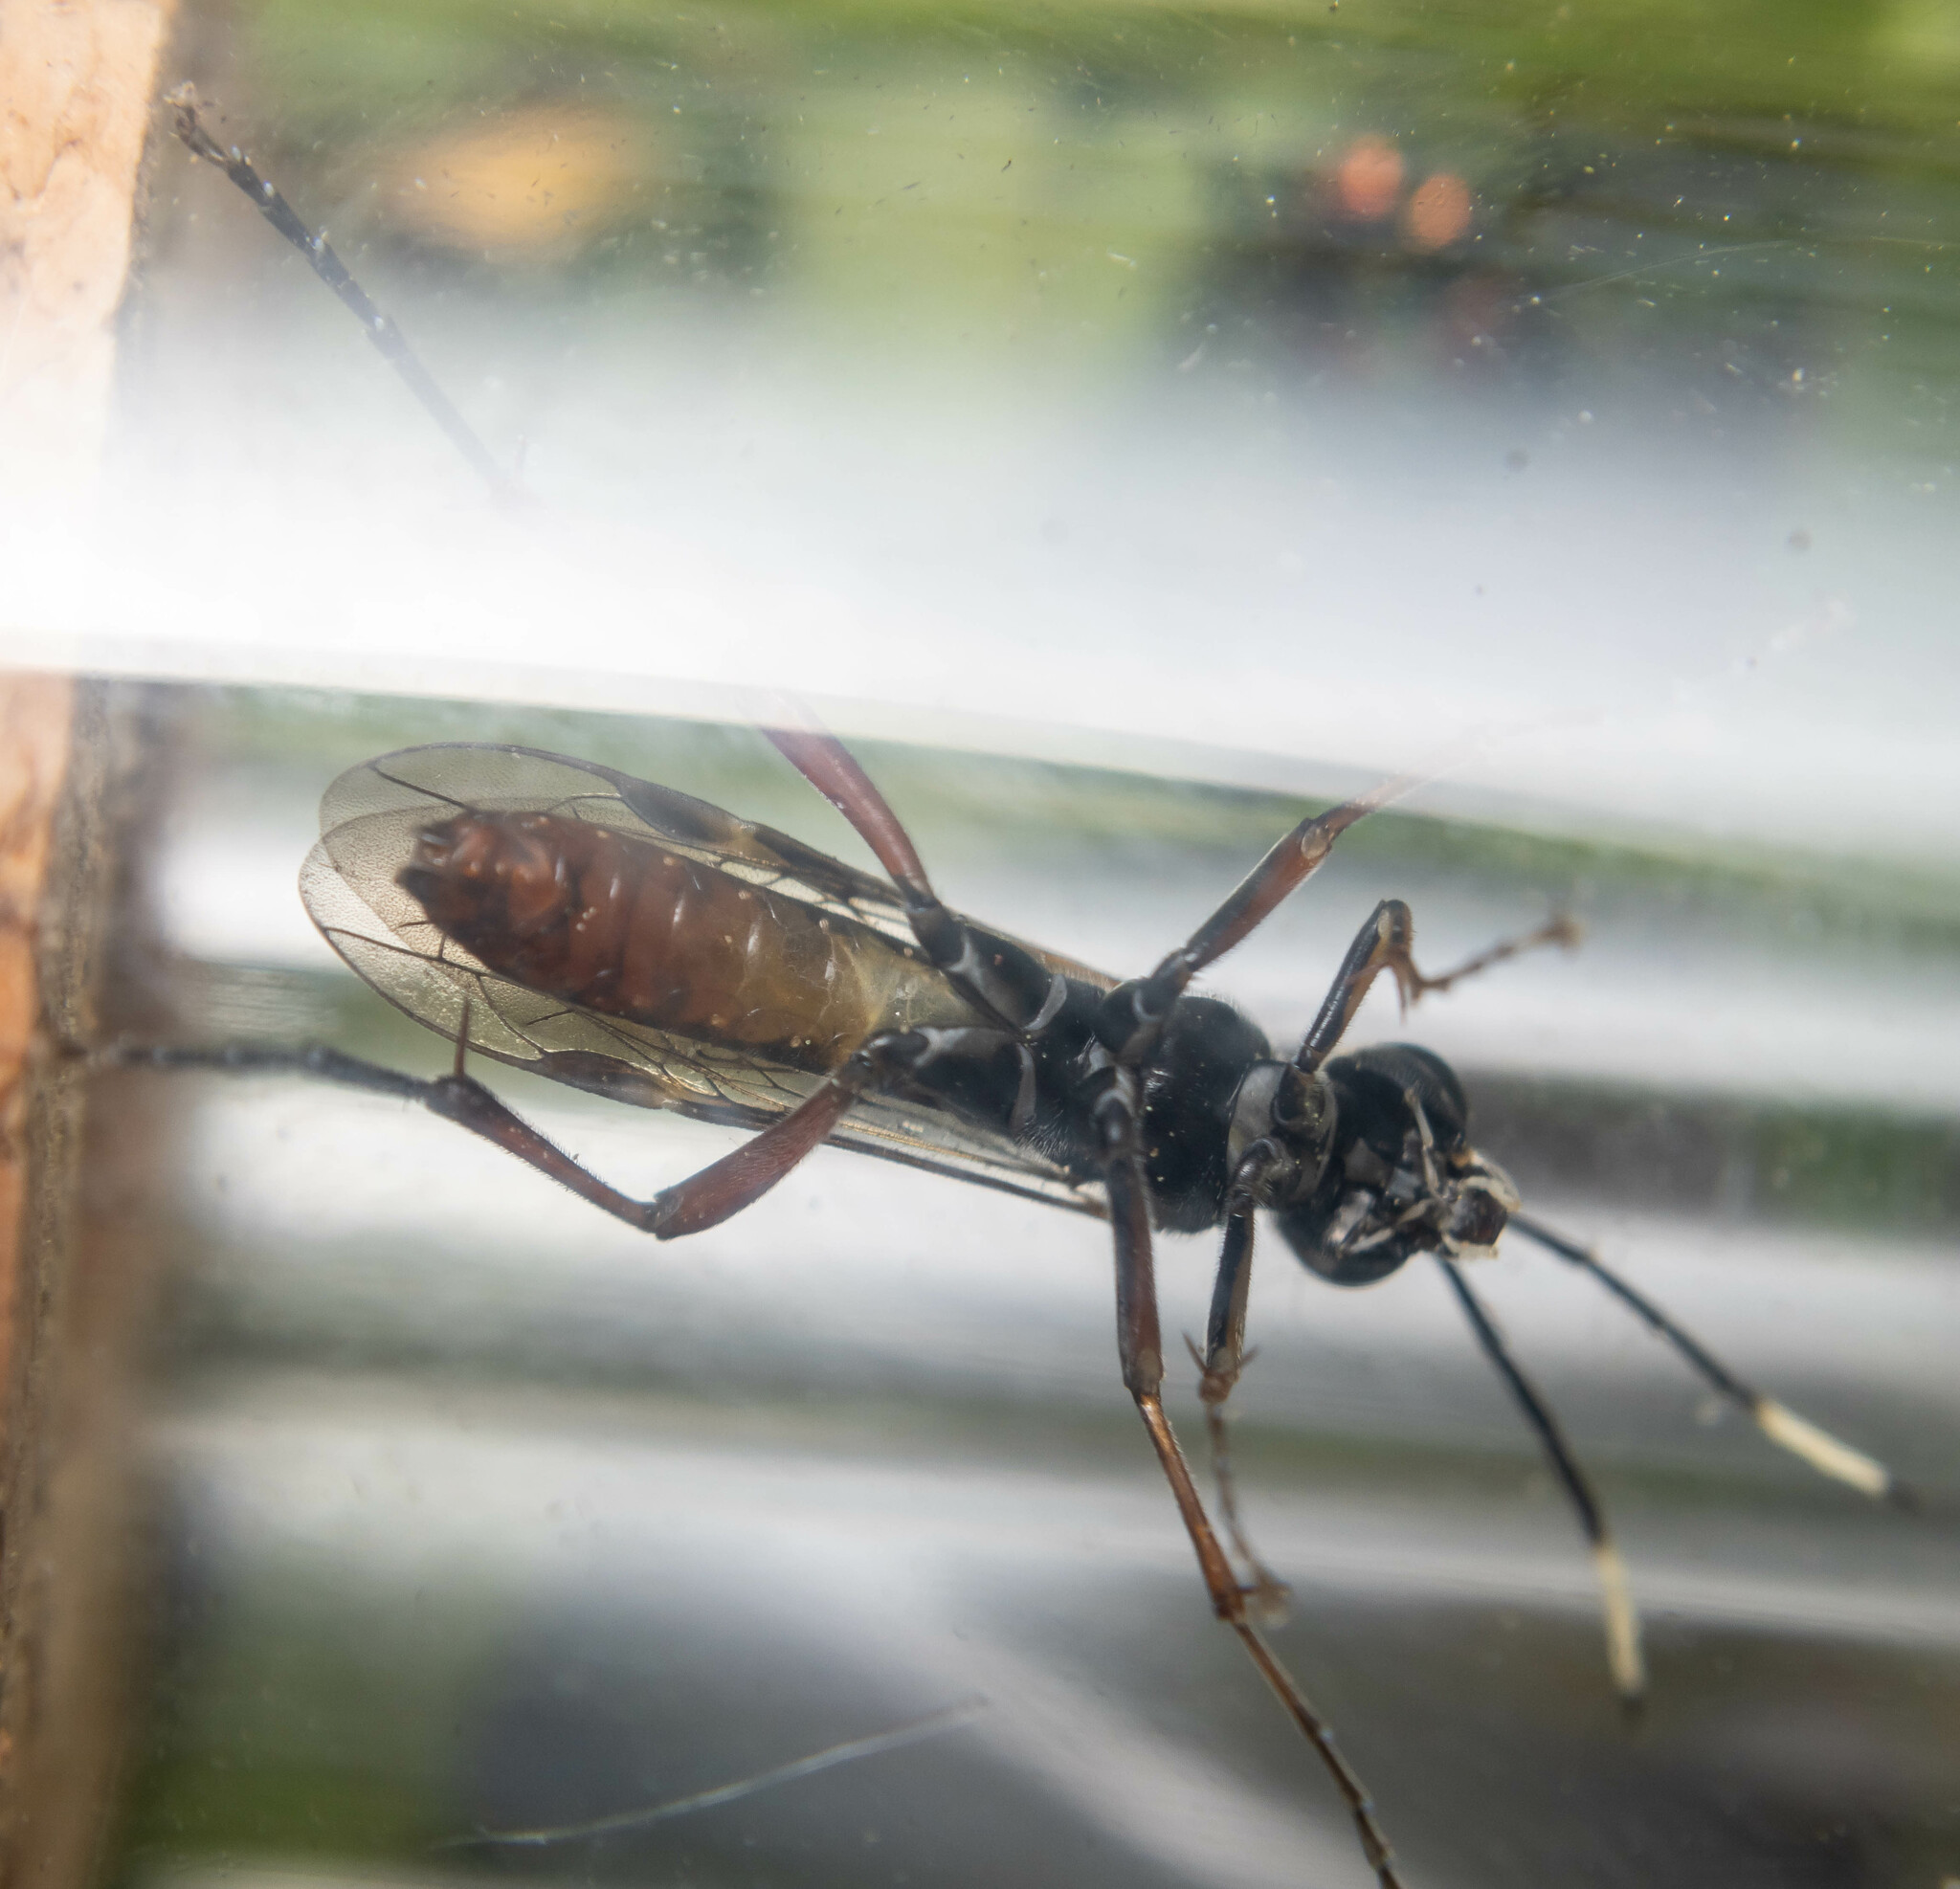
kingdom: Animalia
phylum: Arthropoda
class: Insecta
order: Hymenoptera
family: Tenthredinidae
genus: Tenthredo
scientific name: Tenthredo livida
